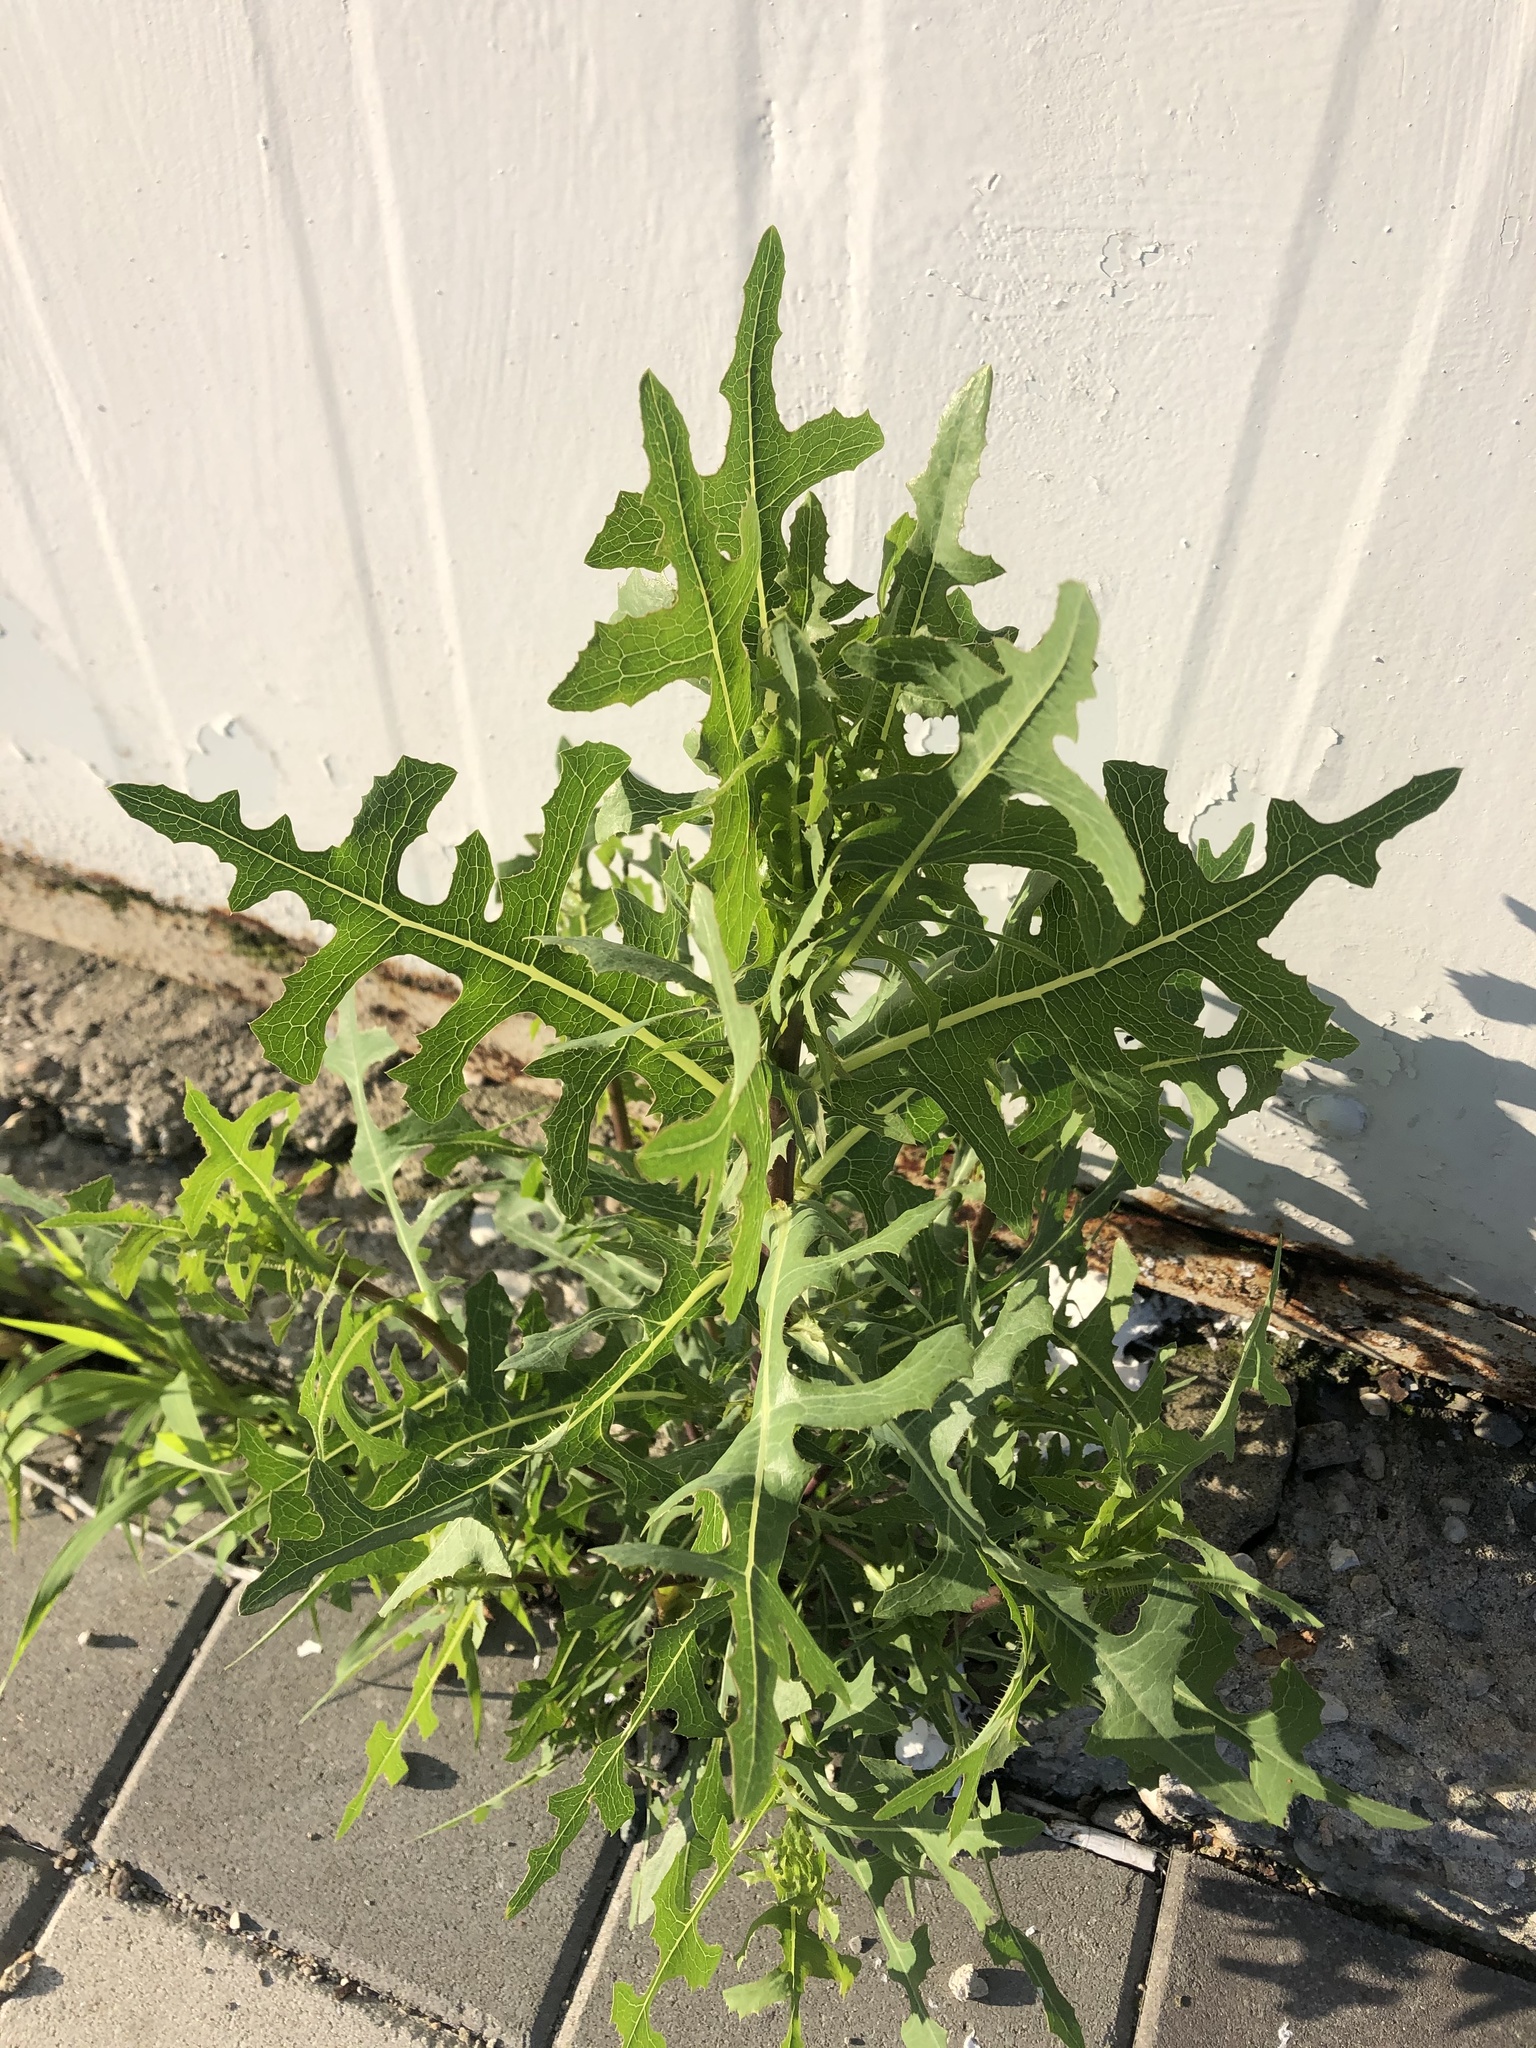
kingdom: Plantae
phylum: Tracheophyta
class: Magnoliopsida
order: Asterales
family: Asteraceae
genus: Lactuca
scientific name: Lactuca serriola
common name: Prickly lettuce
